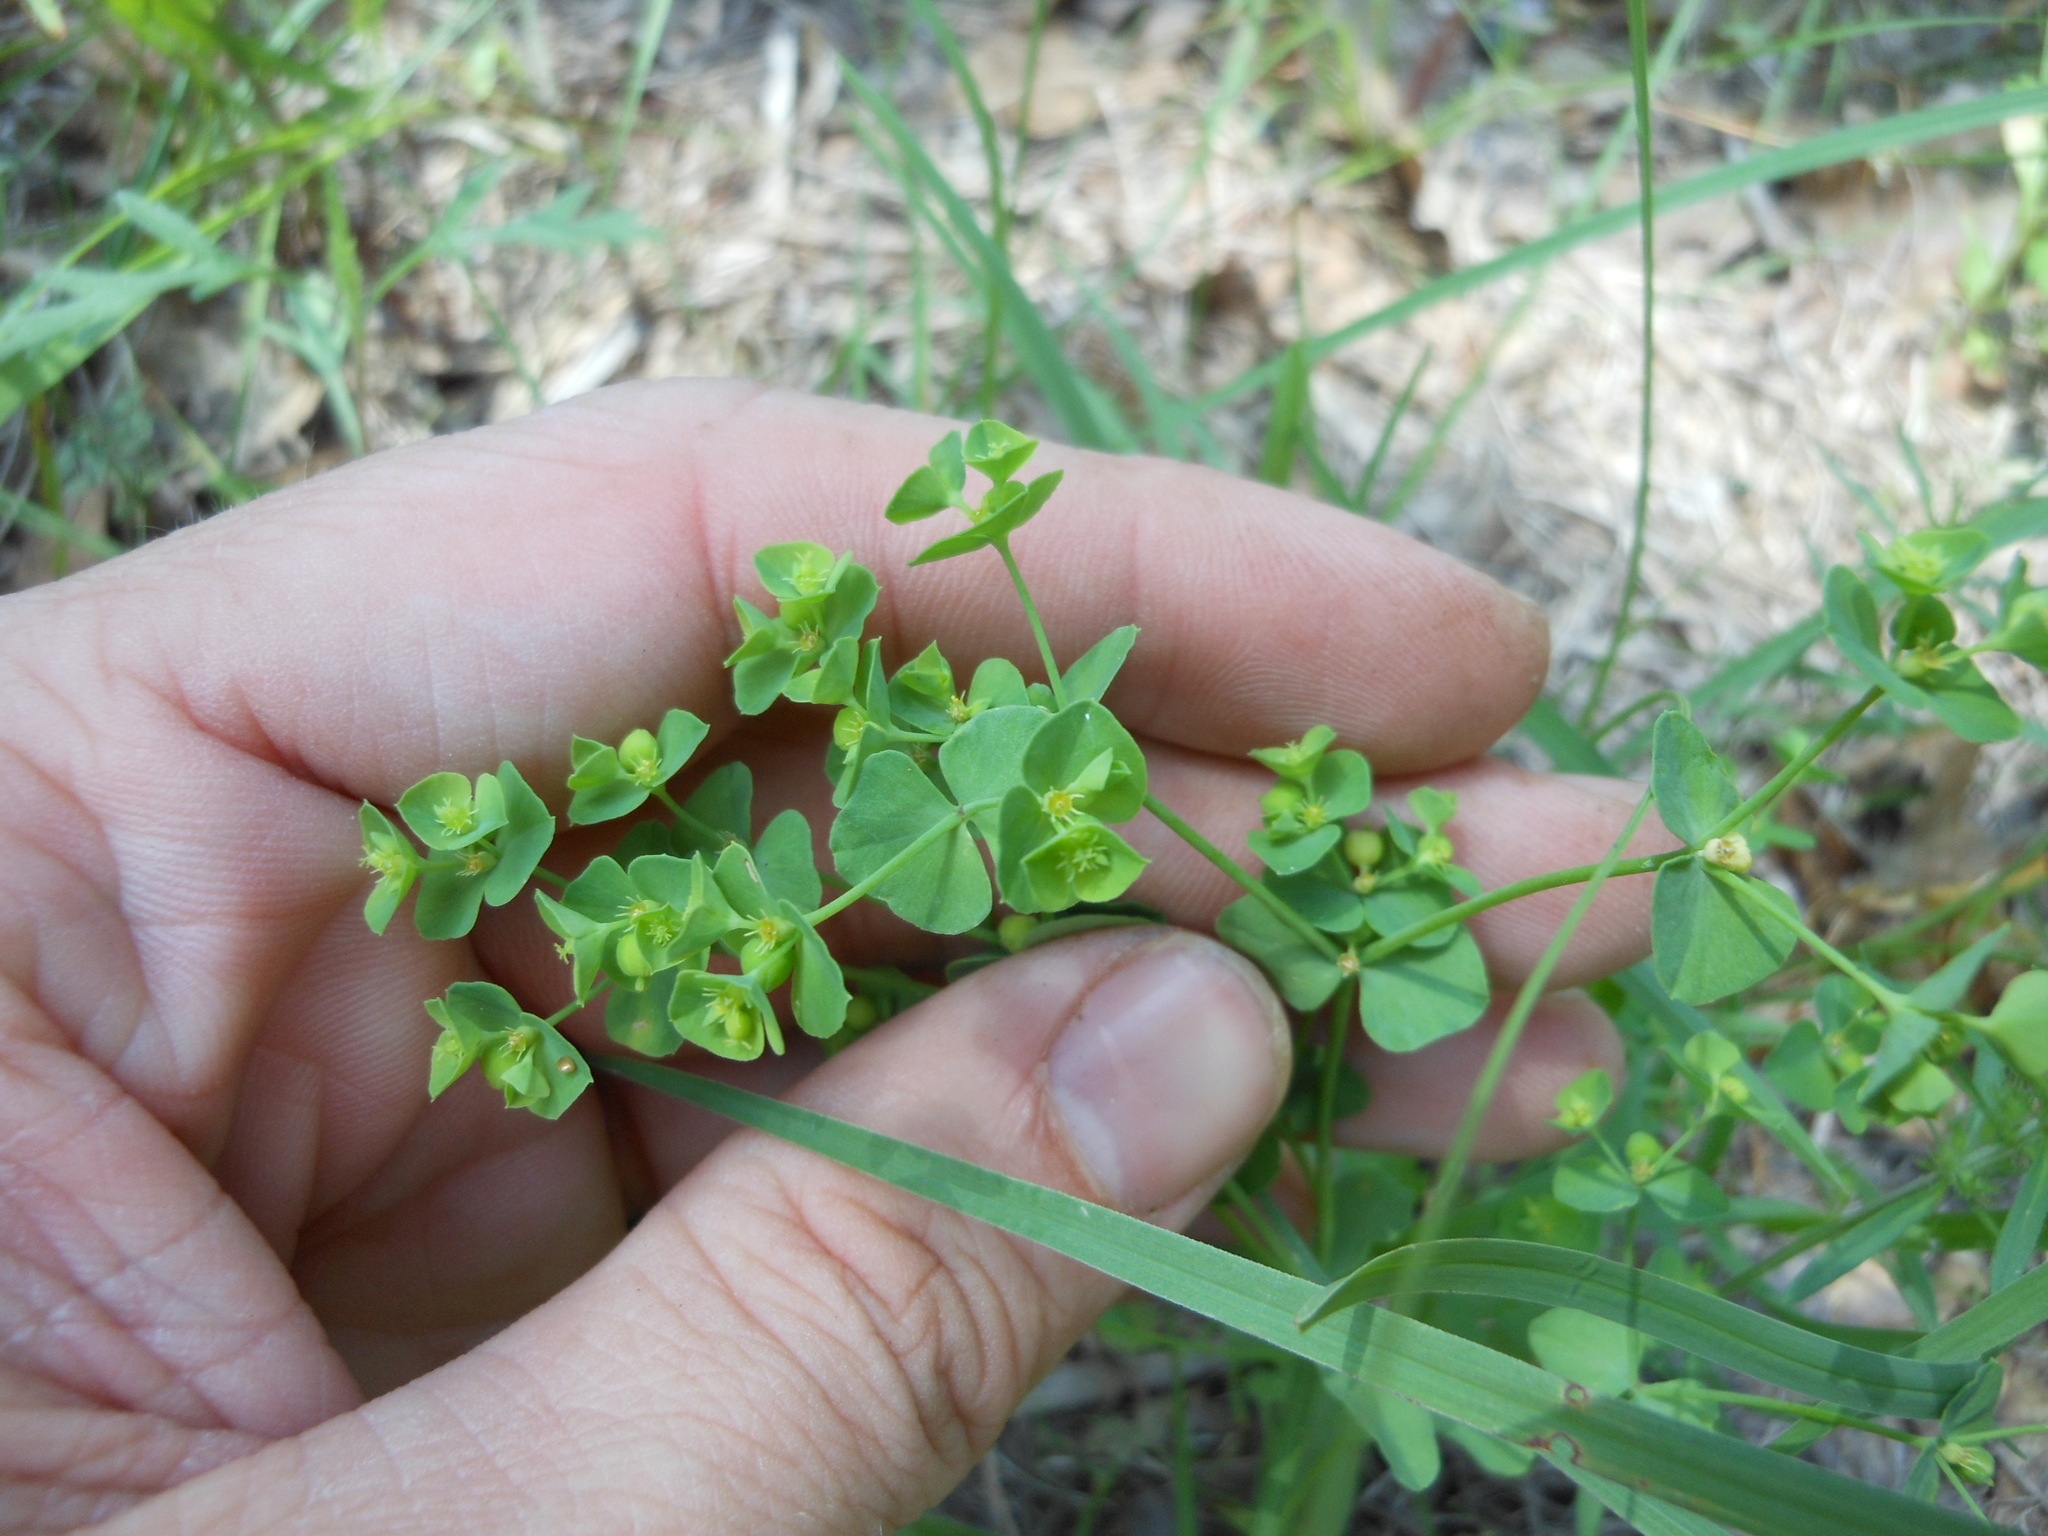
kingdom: Plantae
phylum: Tracheophyta
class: Magnoliopsida
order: Malpighiales
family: Euphorbiaceae
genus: Euphorbia
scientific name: Euphorbia tetrapora
